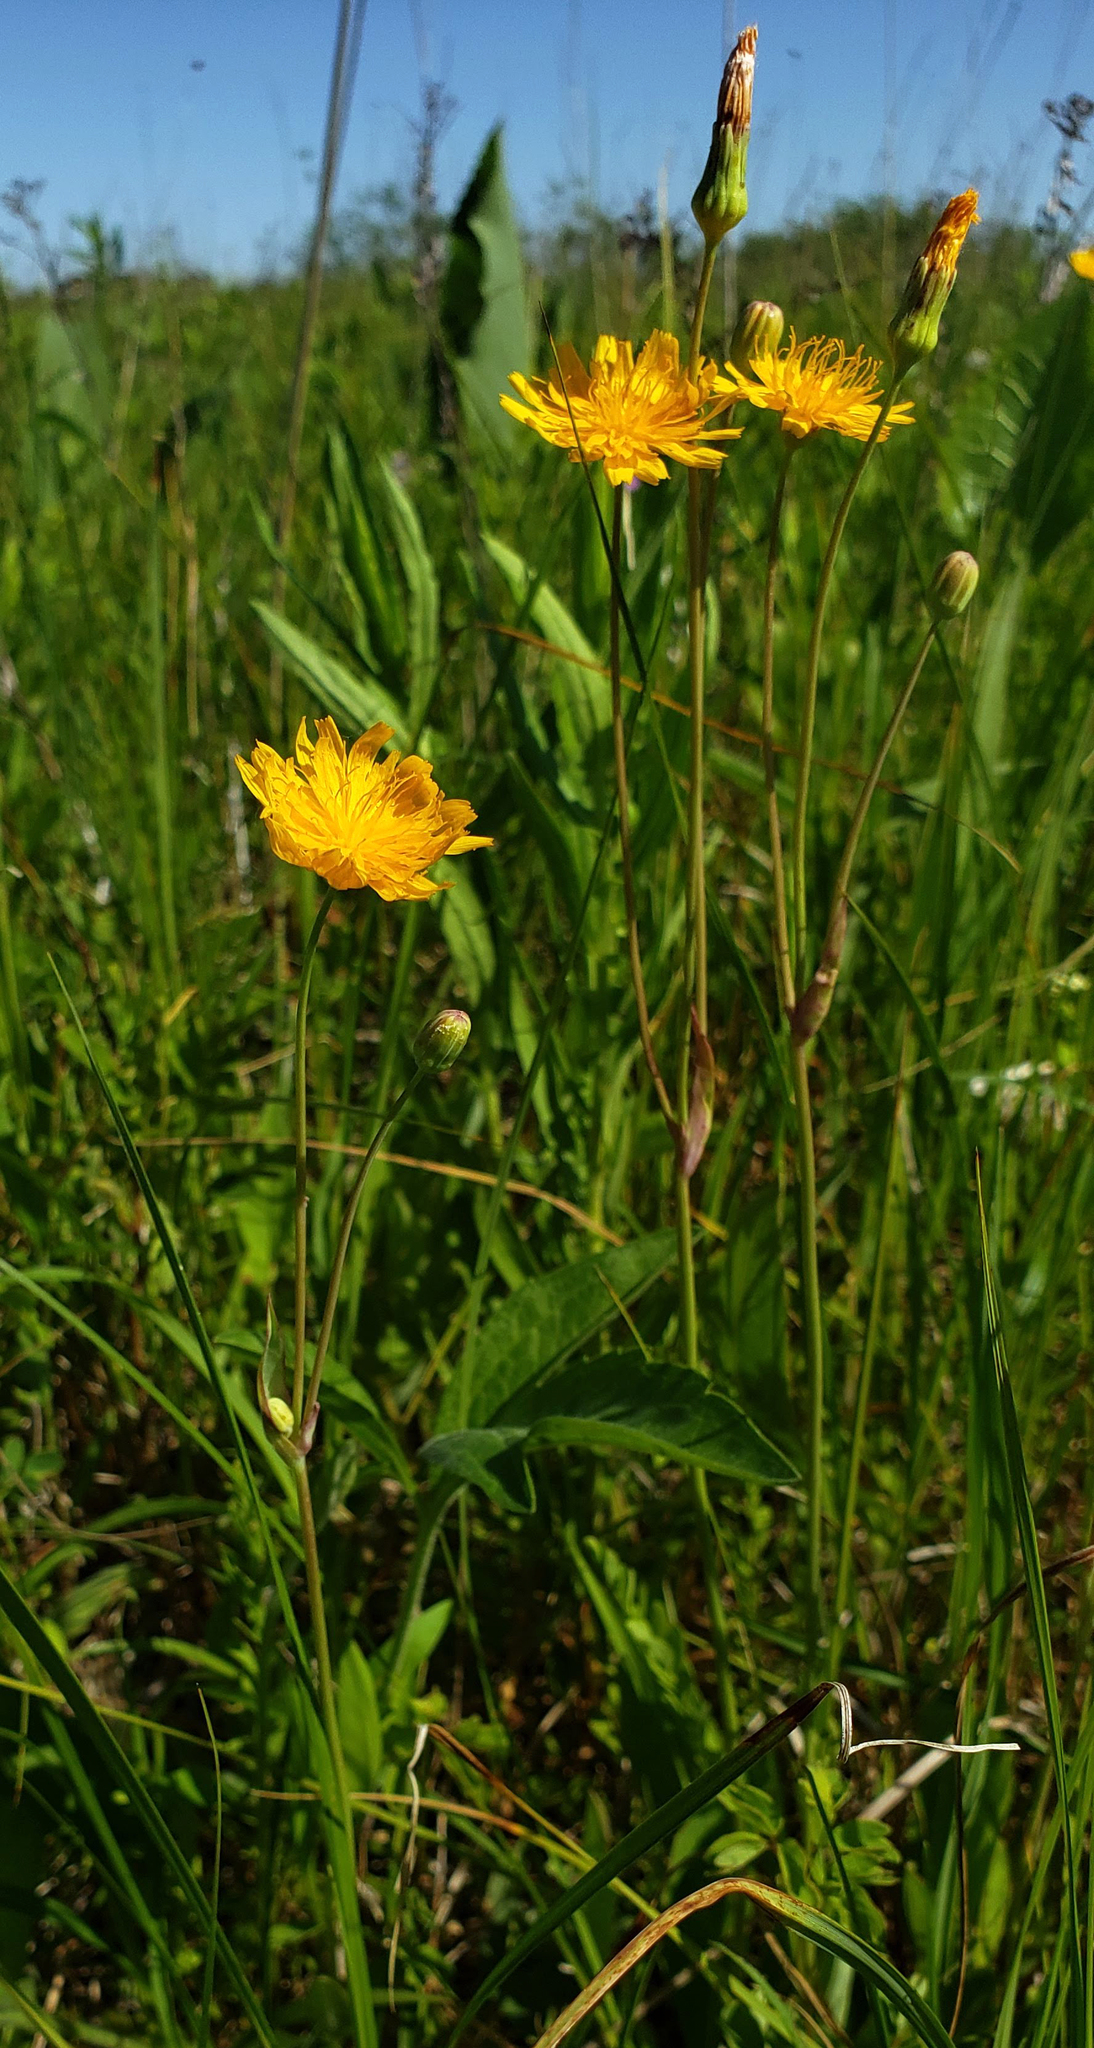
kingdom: Plantae
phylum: Tracheophyta
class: Magnoliopsida
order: Asterales
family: Asteraceae
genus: Krigia
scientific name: Krigia biflora
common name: Orange dwarf-dandelion
